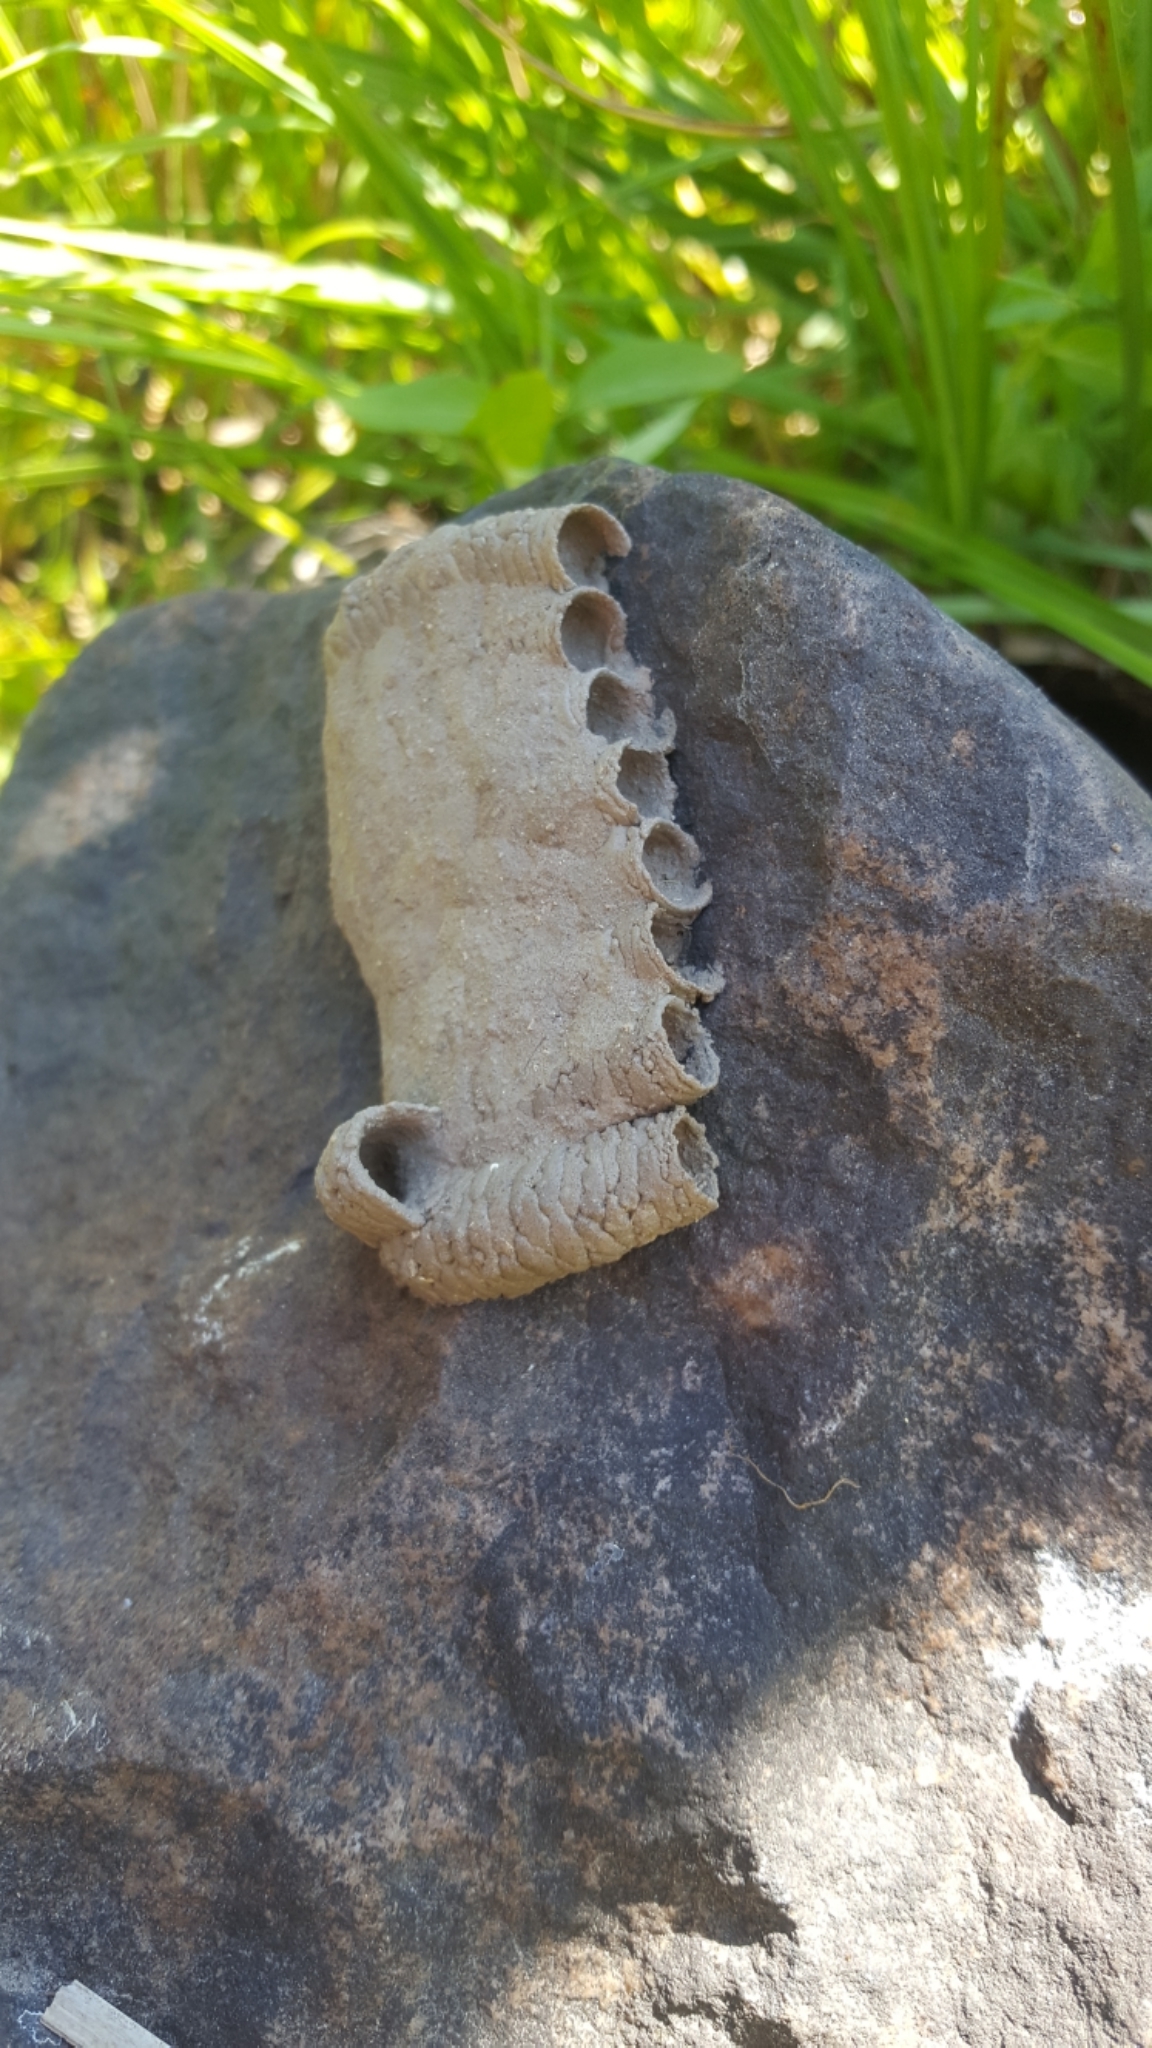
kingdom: Animalia
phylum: Arthropoda
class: Insecta
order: Hymenoptera
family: Sphecidae
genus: Sceliphron
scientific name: Sceliphron caementarium
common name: Mud dauber
